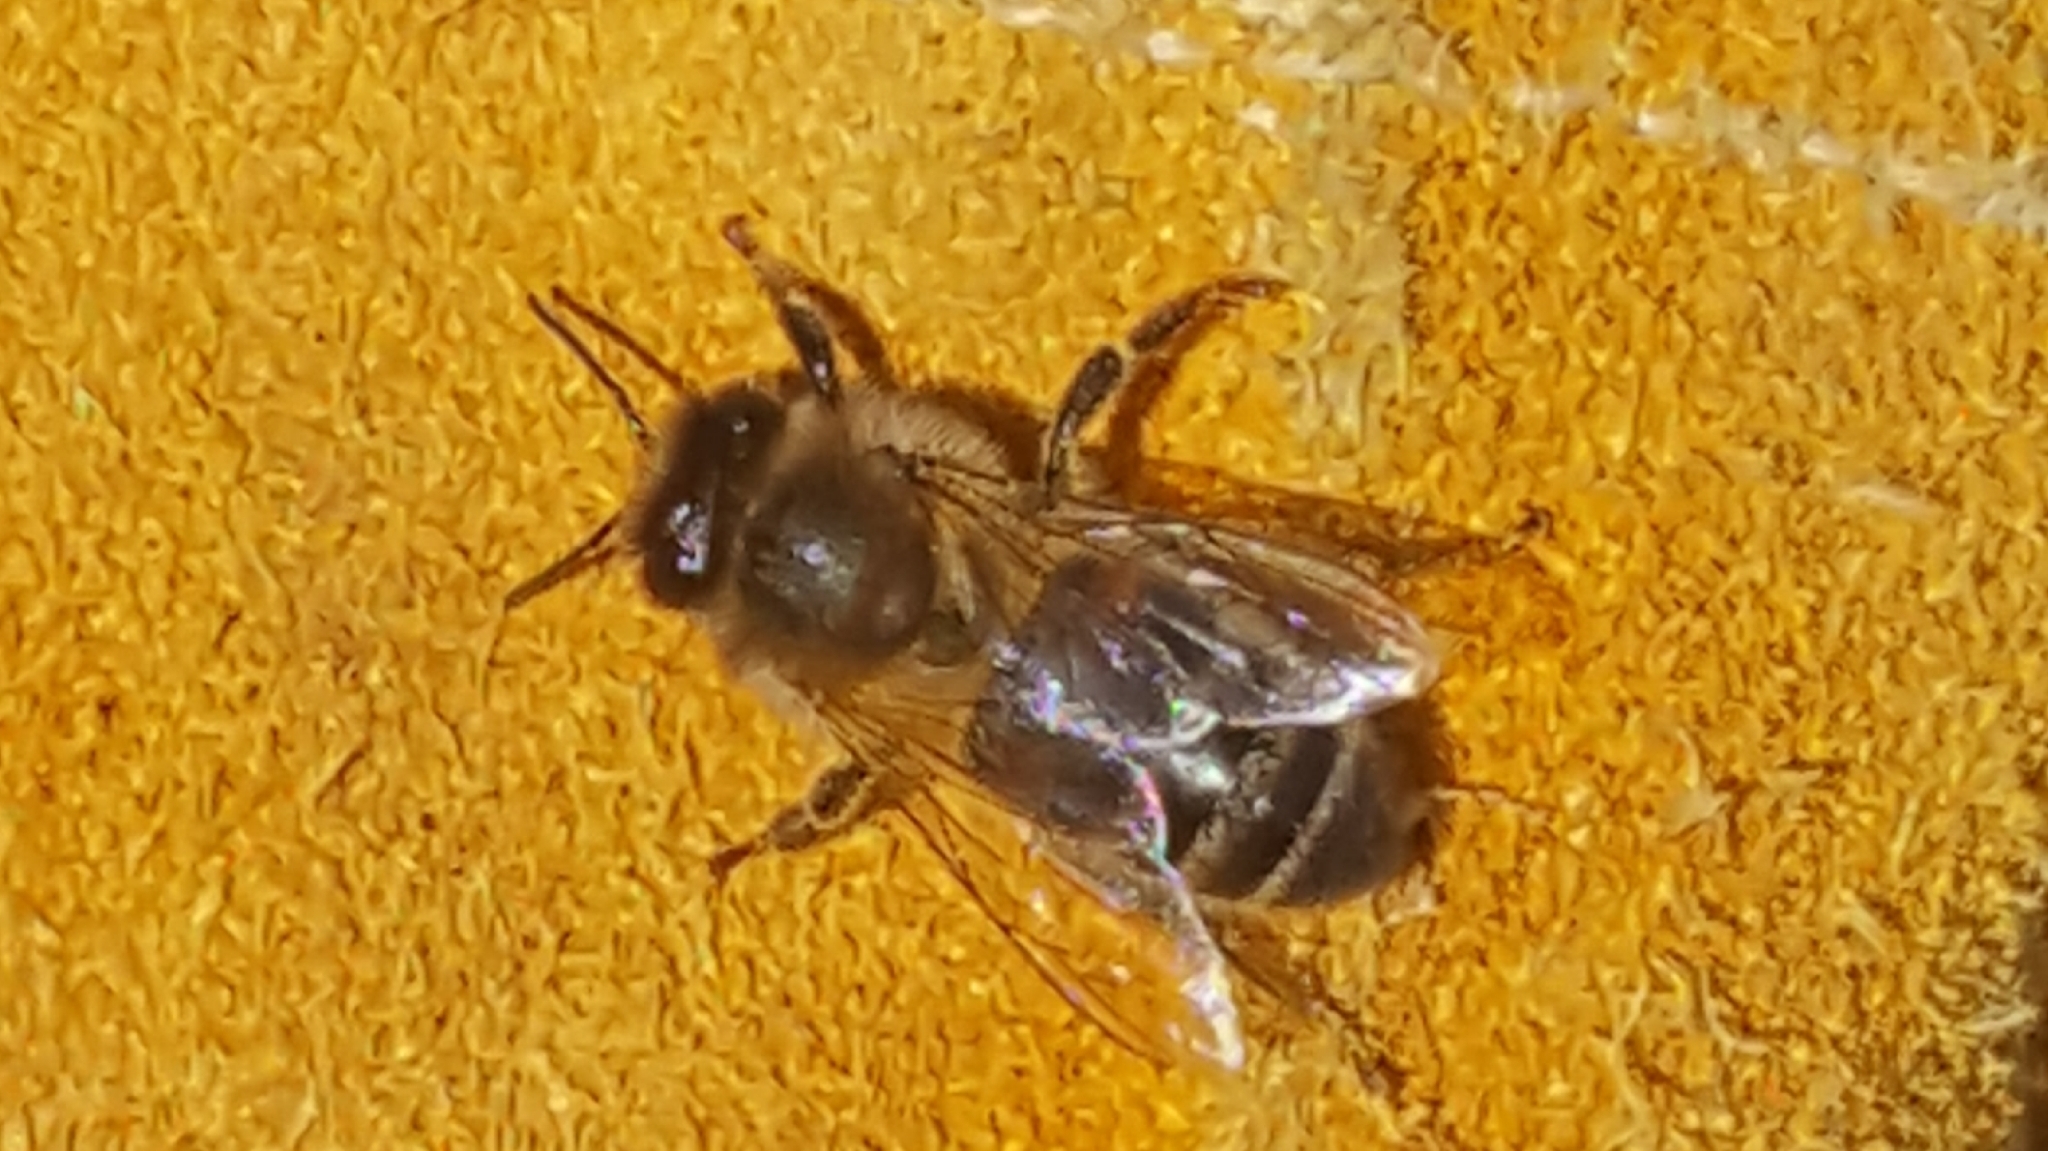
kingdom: Animalia
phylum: Arthropoda
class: Insecta
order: Hymenoptera
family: Apidae
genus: Apis
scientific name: Apis mellifera
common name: Honey bee
